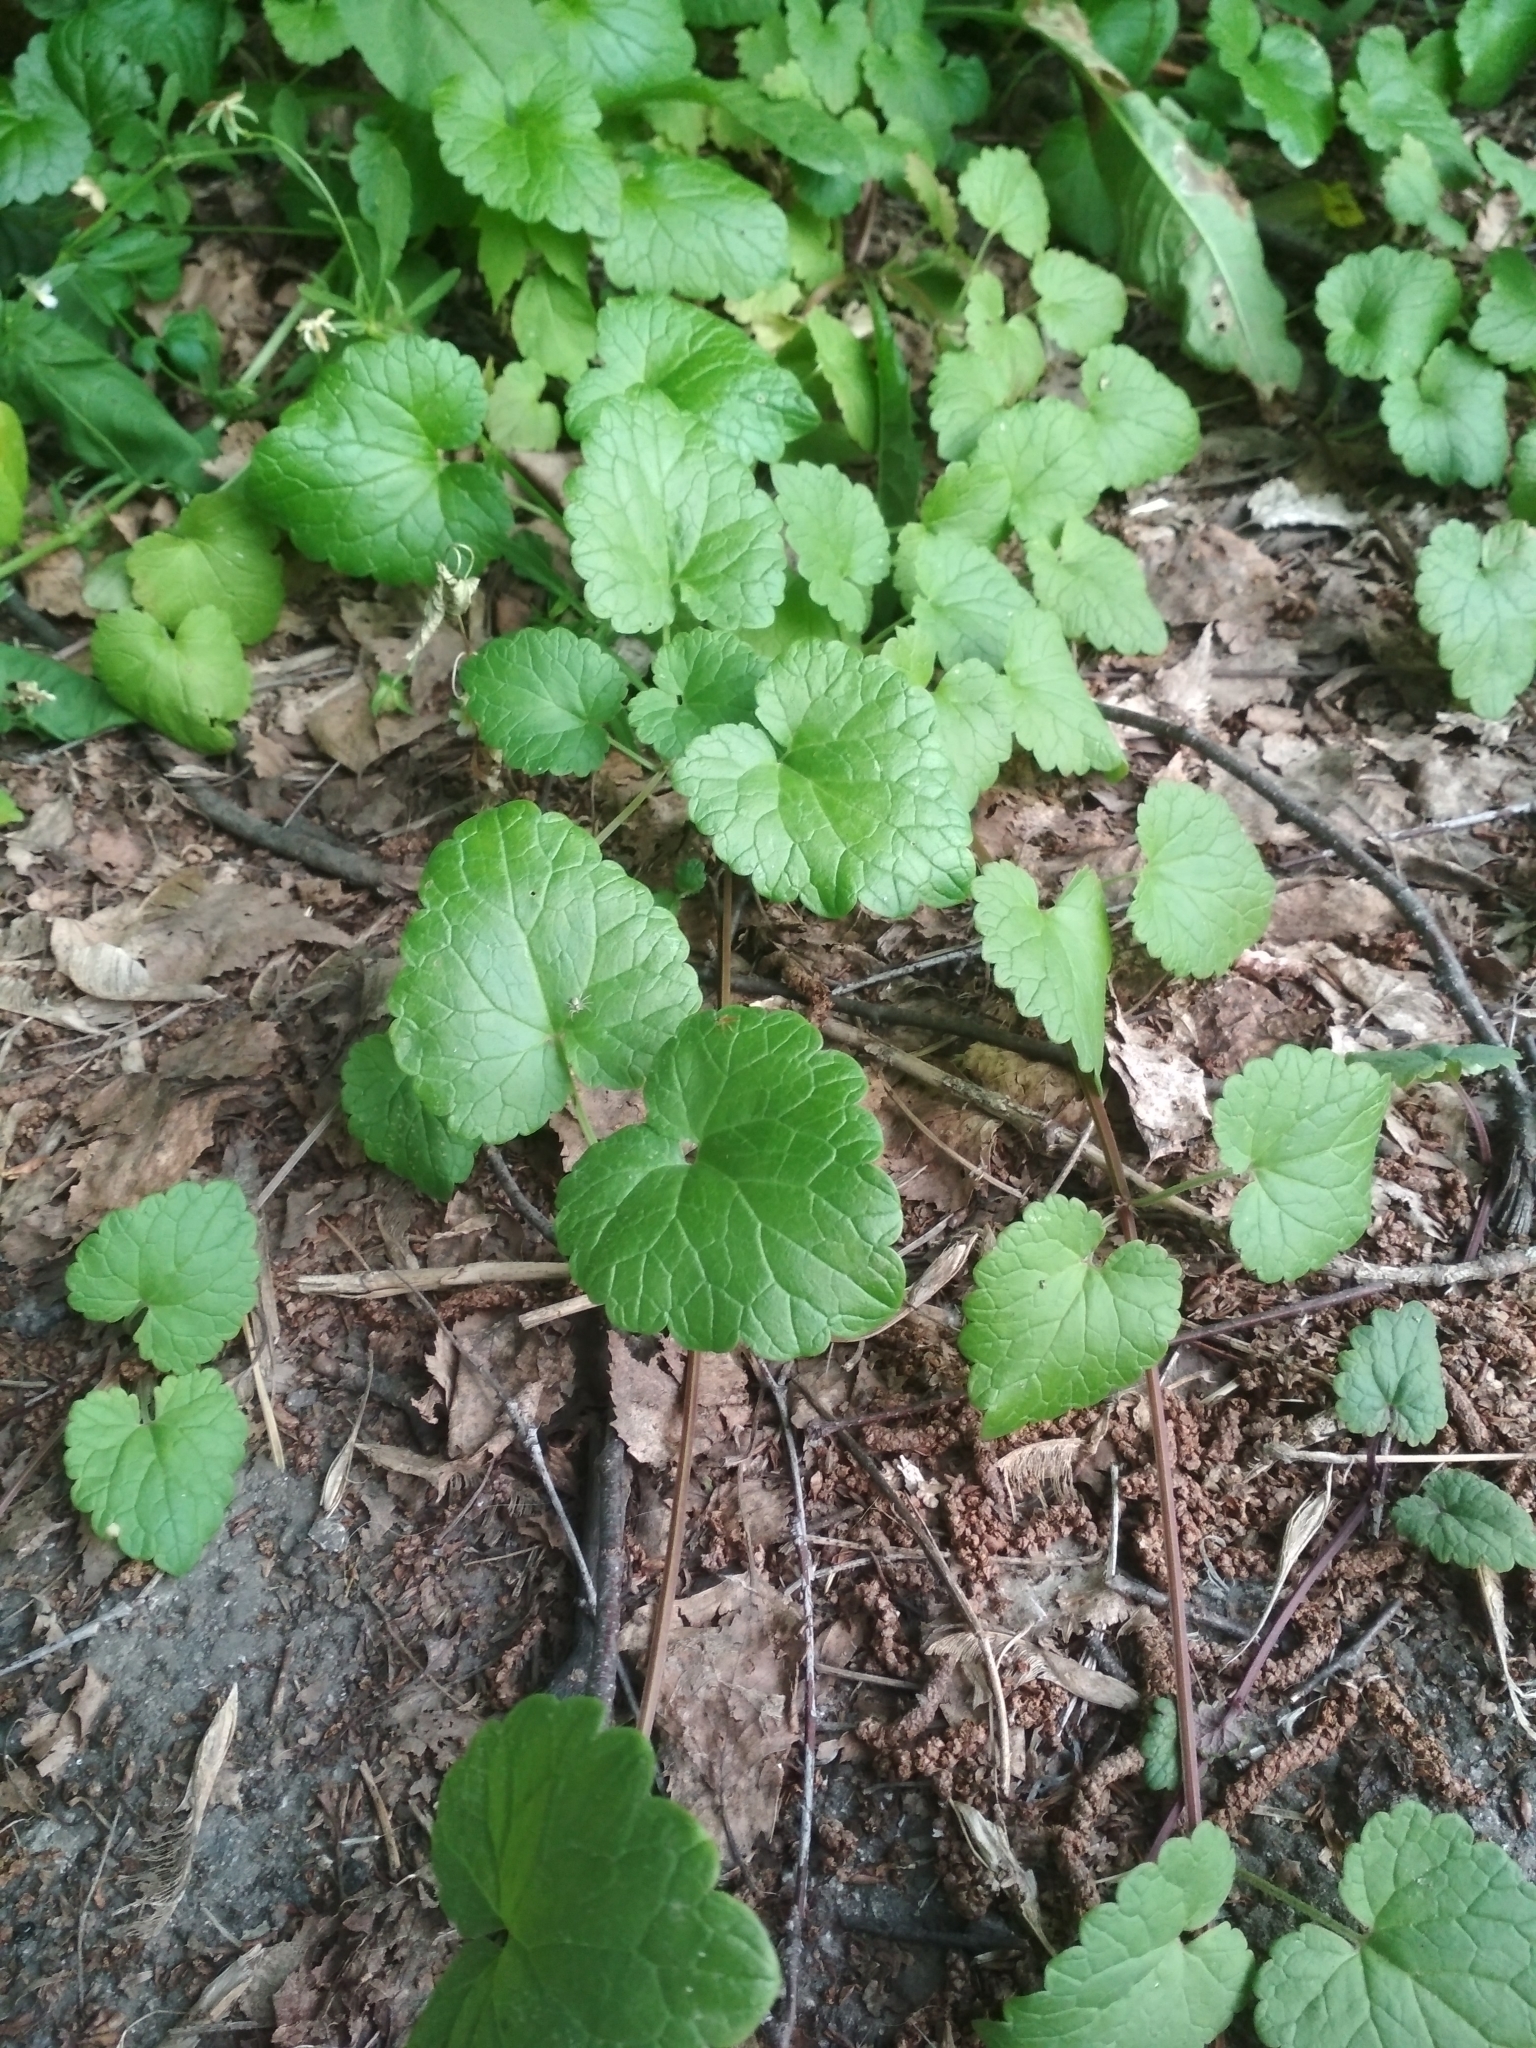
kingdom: Plantae
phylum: Tracheophyta
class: Magnoliopsida
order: Lamiales
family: Lamiaceae
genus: Glechoma
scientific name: Glechoma hederacea
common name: Ground ivy
